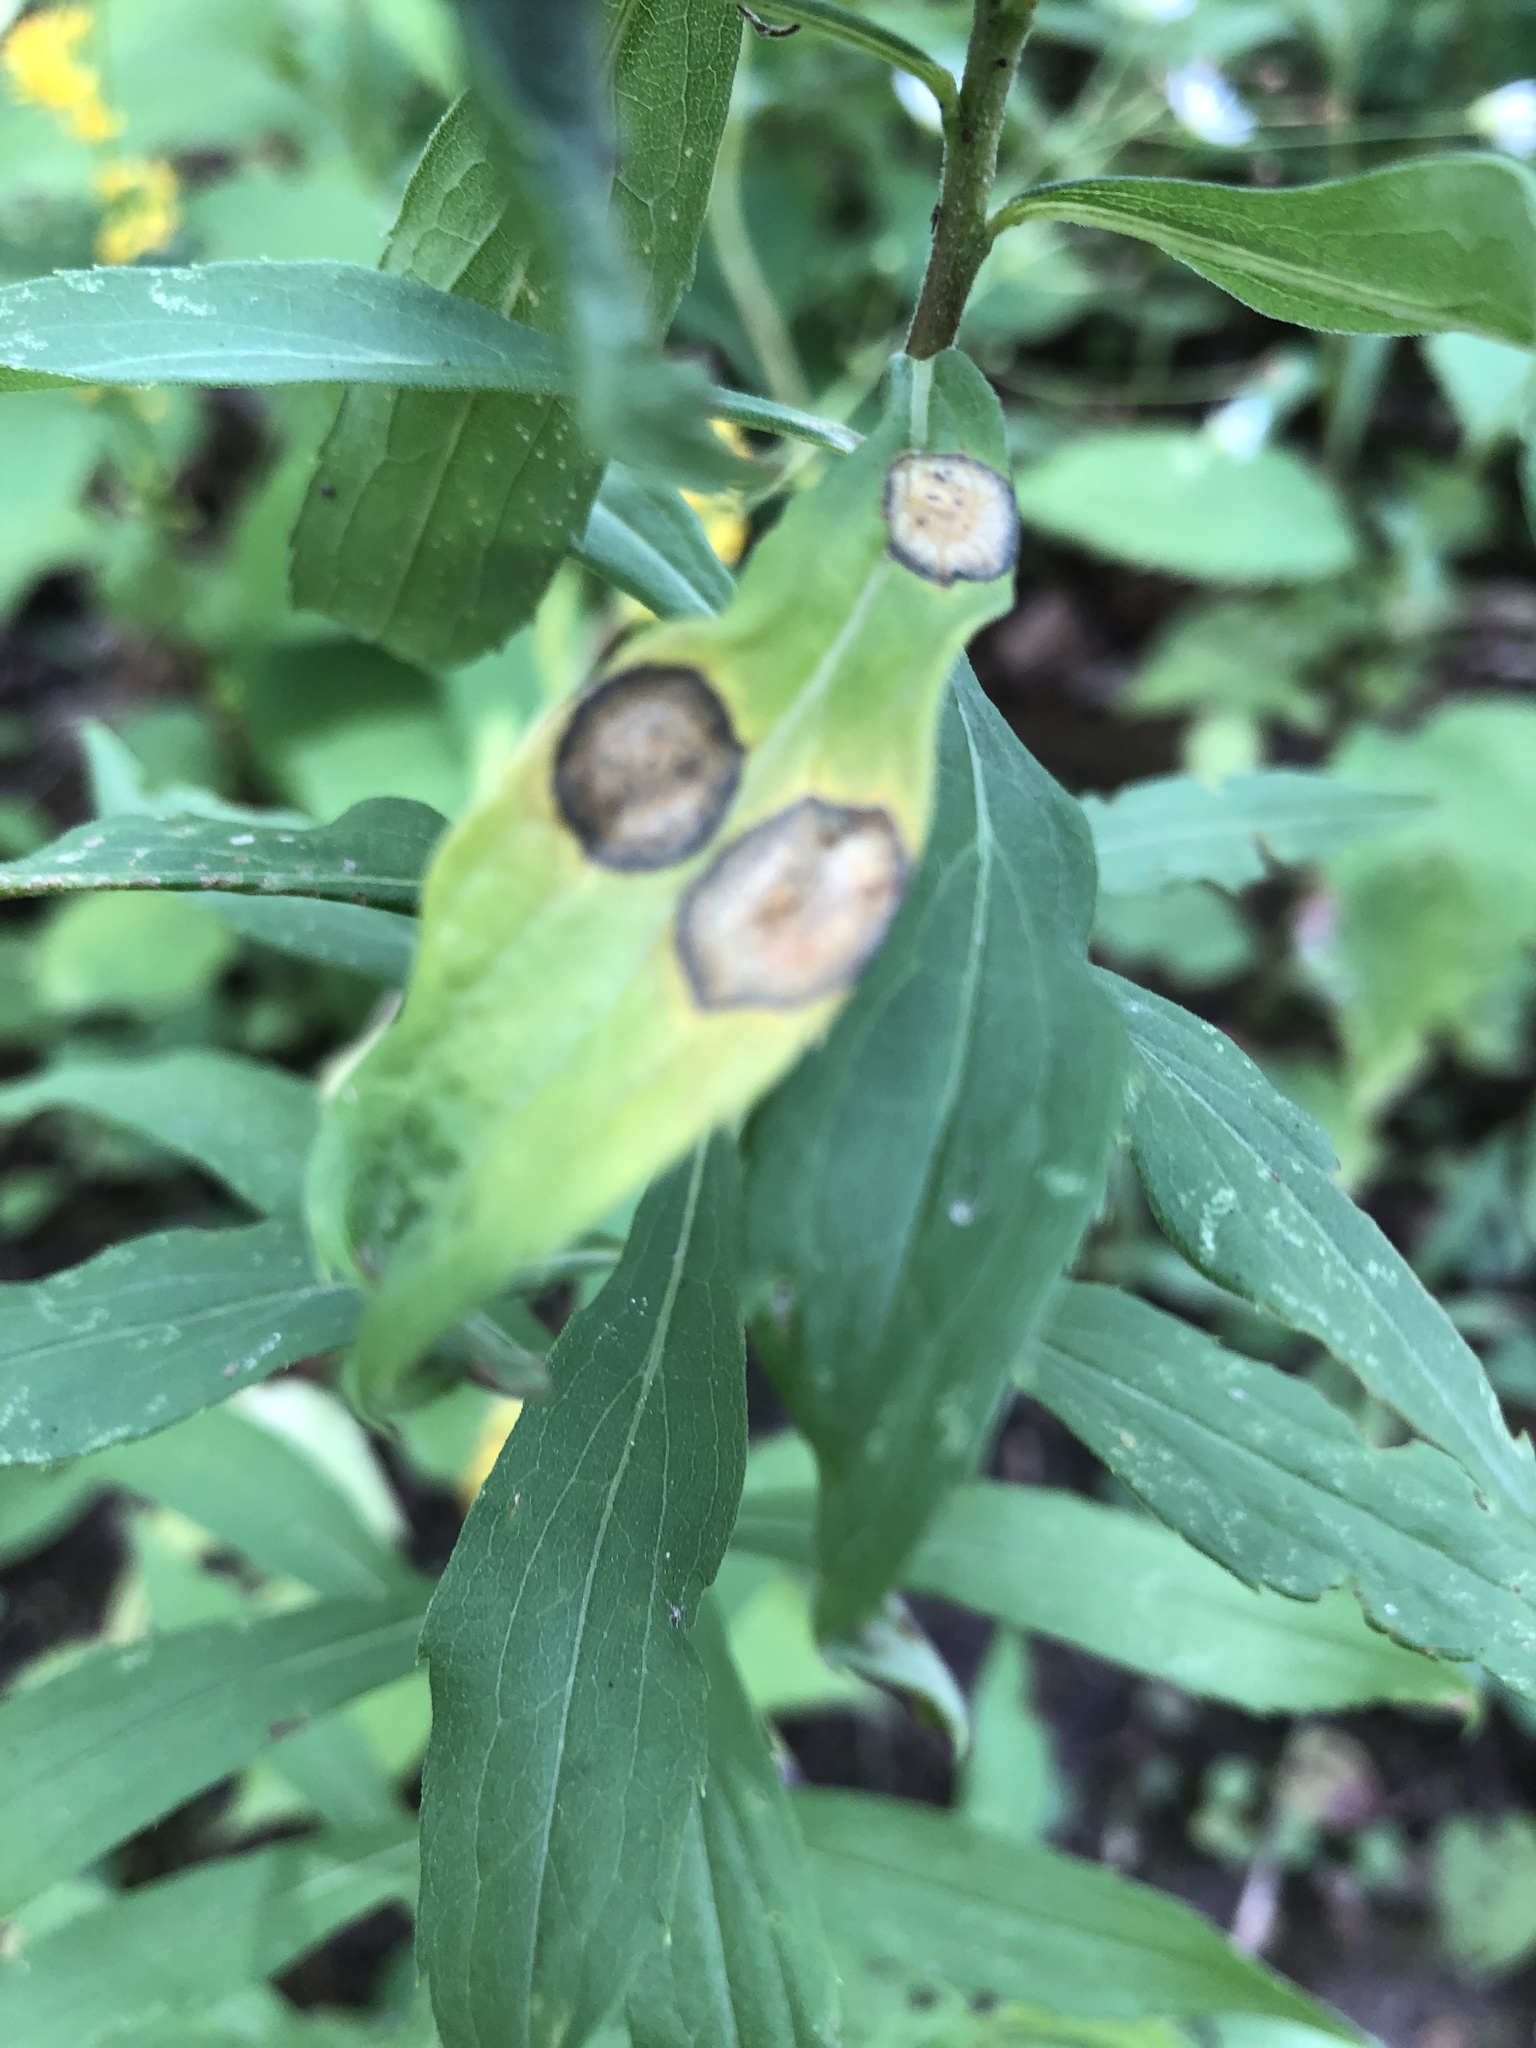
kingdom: Animalia
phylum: Arthropoda
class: Insecta
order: Diptera
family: Cecidomyiidae
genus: Asteromyia
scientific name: Asteromyia carbonifera
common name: Carbonifera goldenrod gall midge
